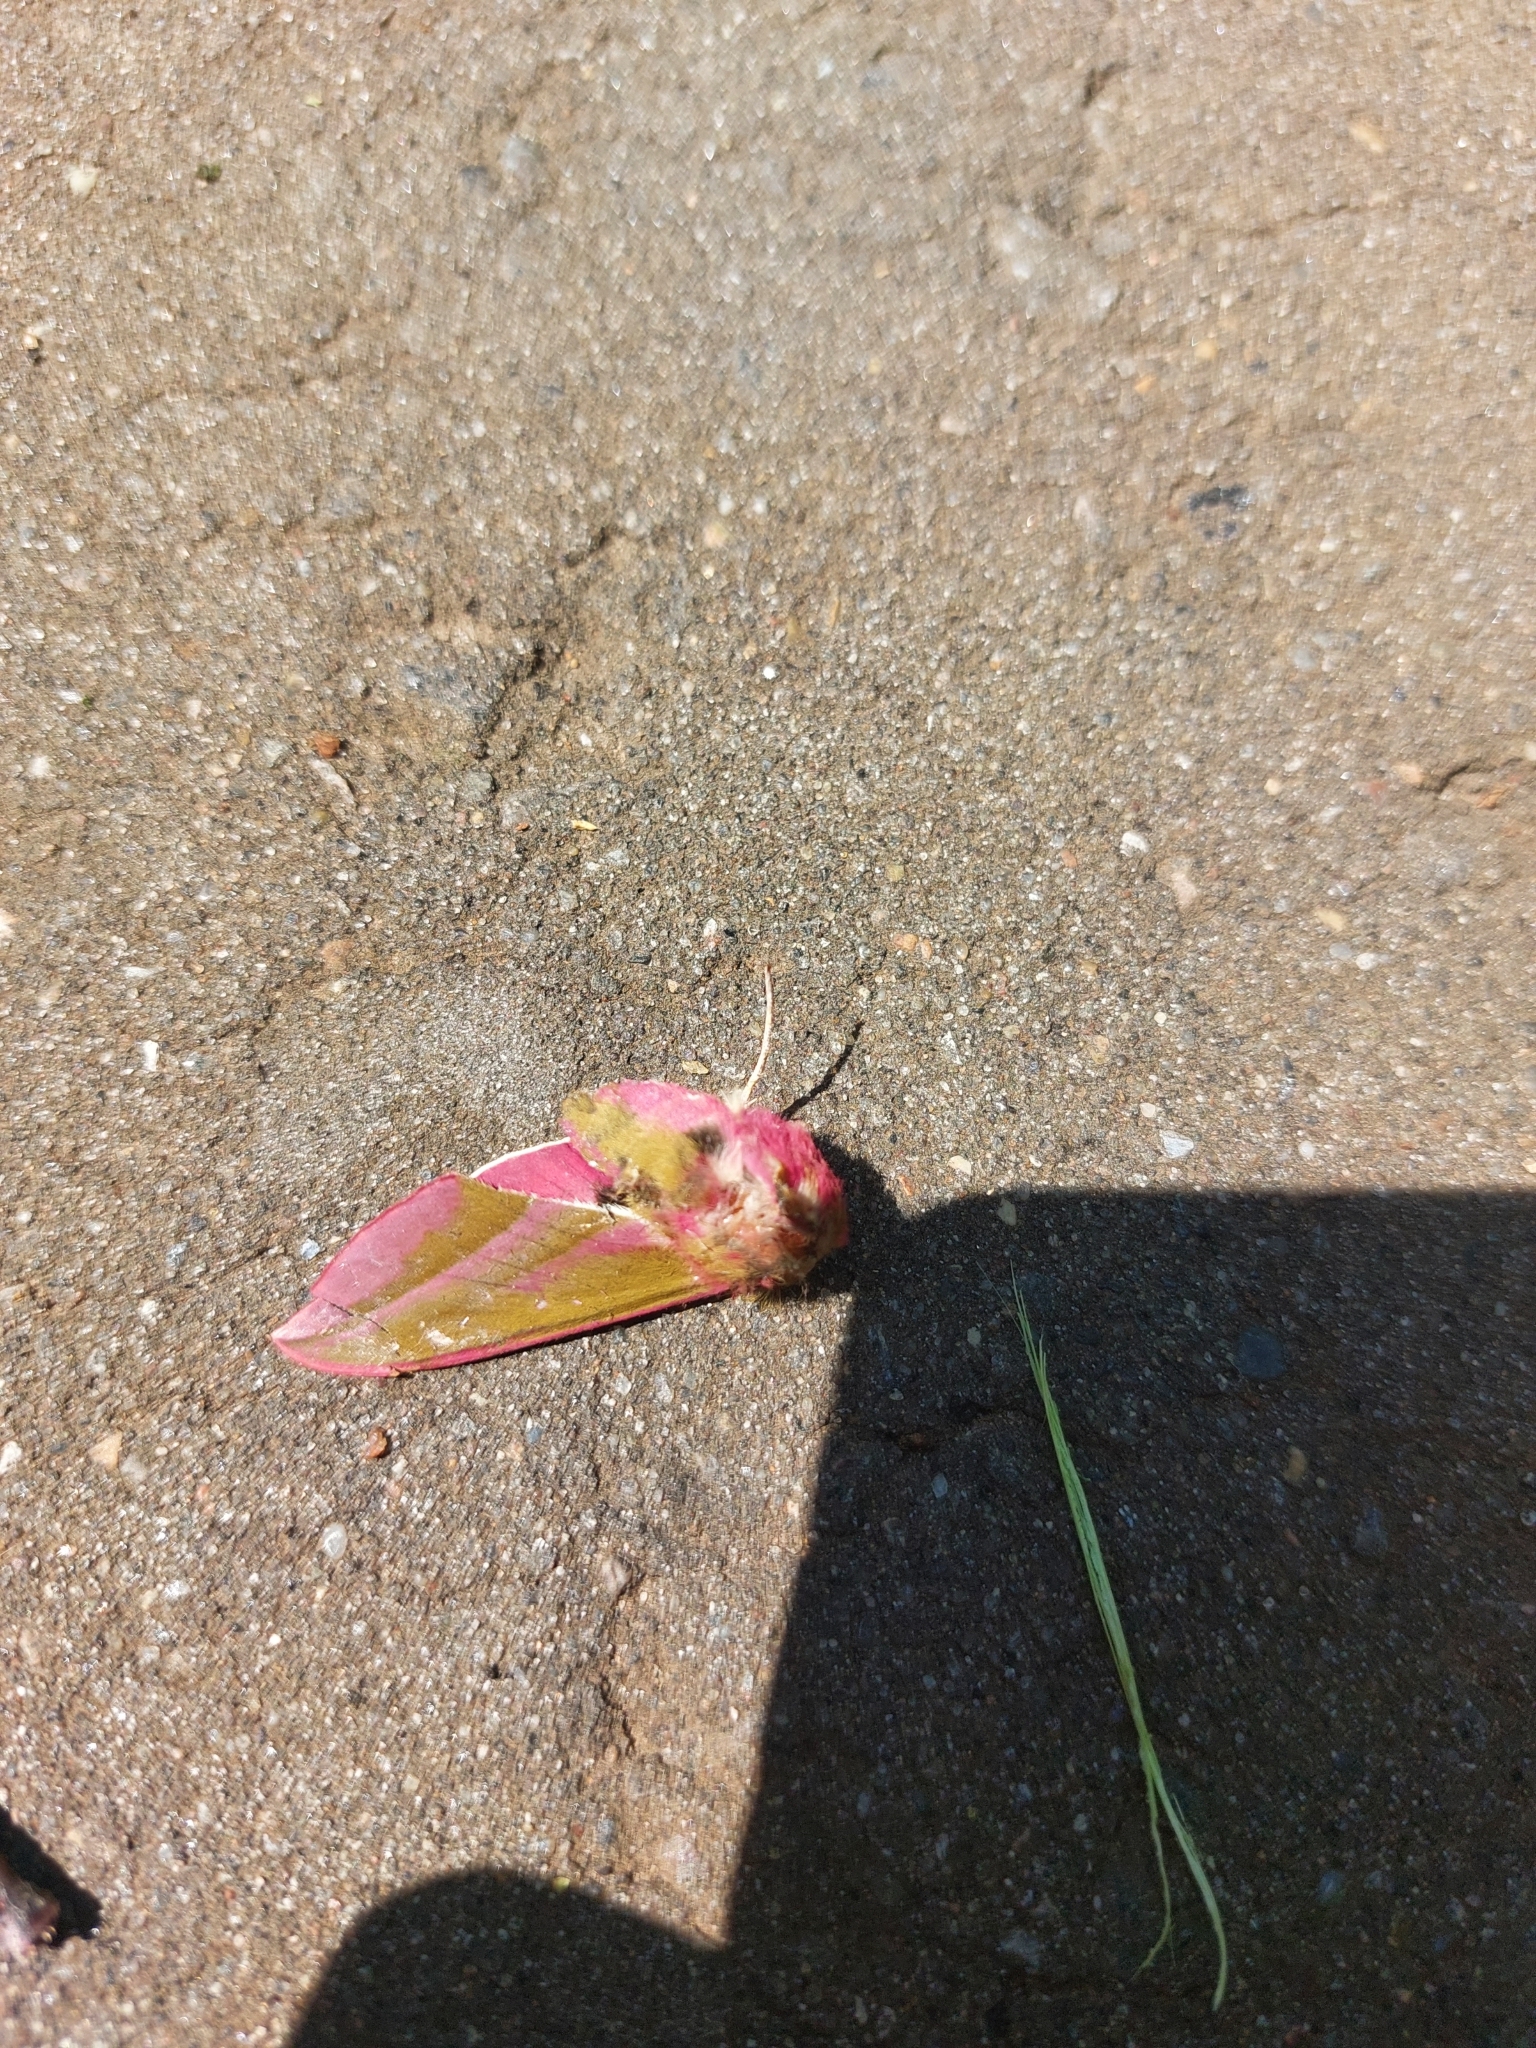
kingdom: Animalia
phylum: Arthropoda
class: Insecta
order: Lepidoptera
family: Sphingidae
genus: Deilephila
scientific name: Deilephila elpenor
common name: Elephant hawk-moth
